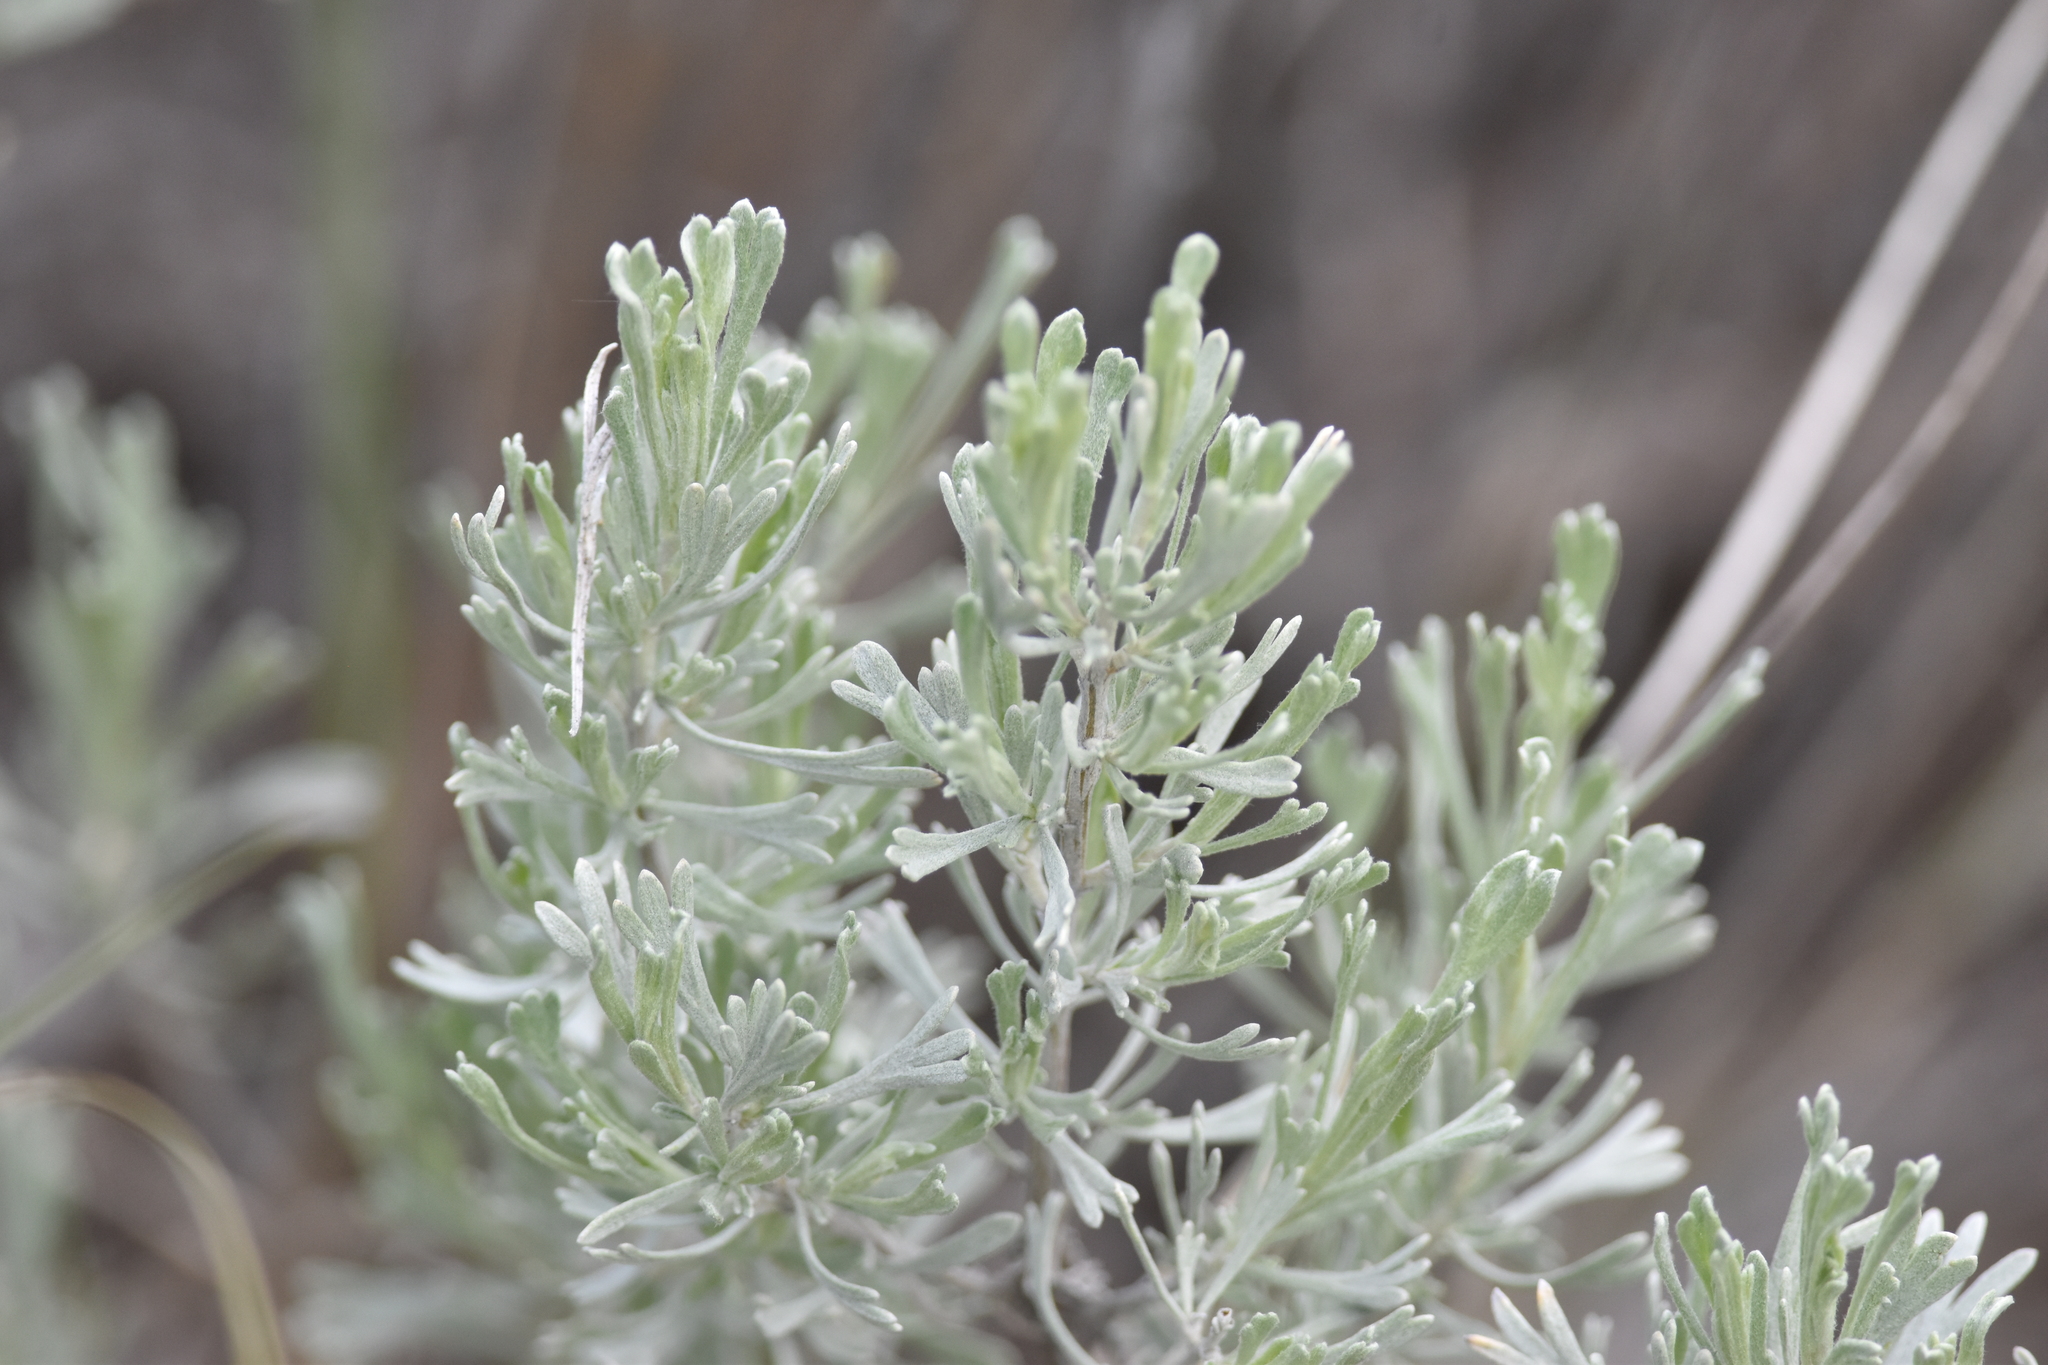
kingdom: Plantae
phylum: Tracheophyta
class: Magnoliopsida
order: Asterales
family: Asteraceae
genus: Artemisia
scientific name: Artemisia tridentata
